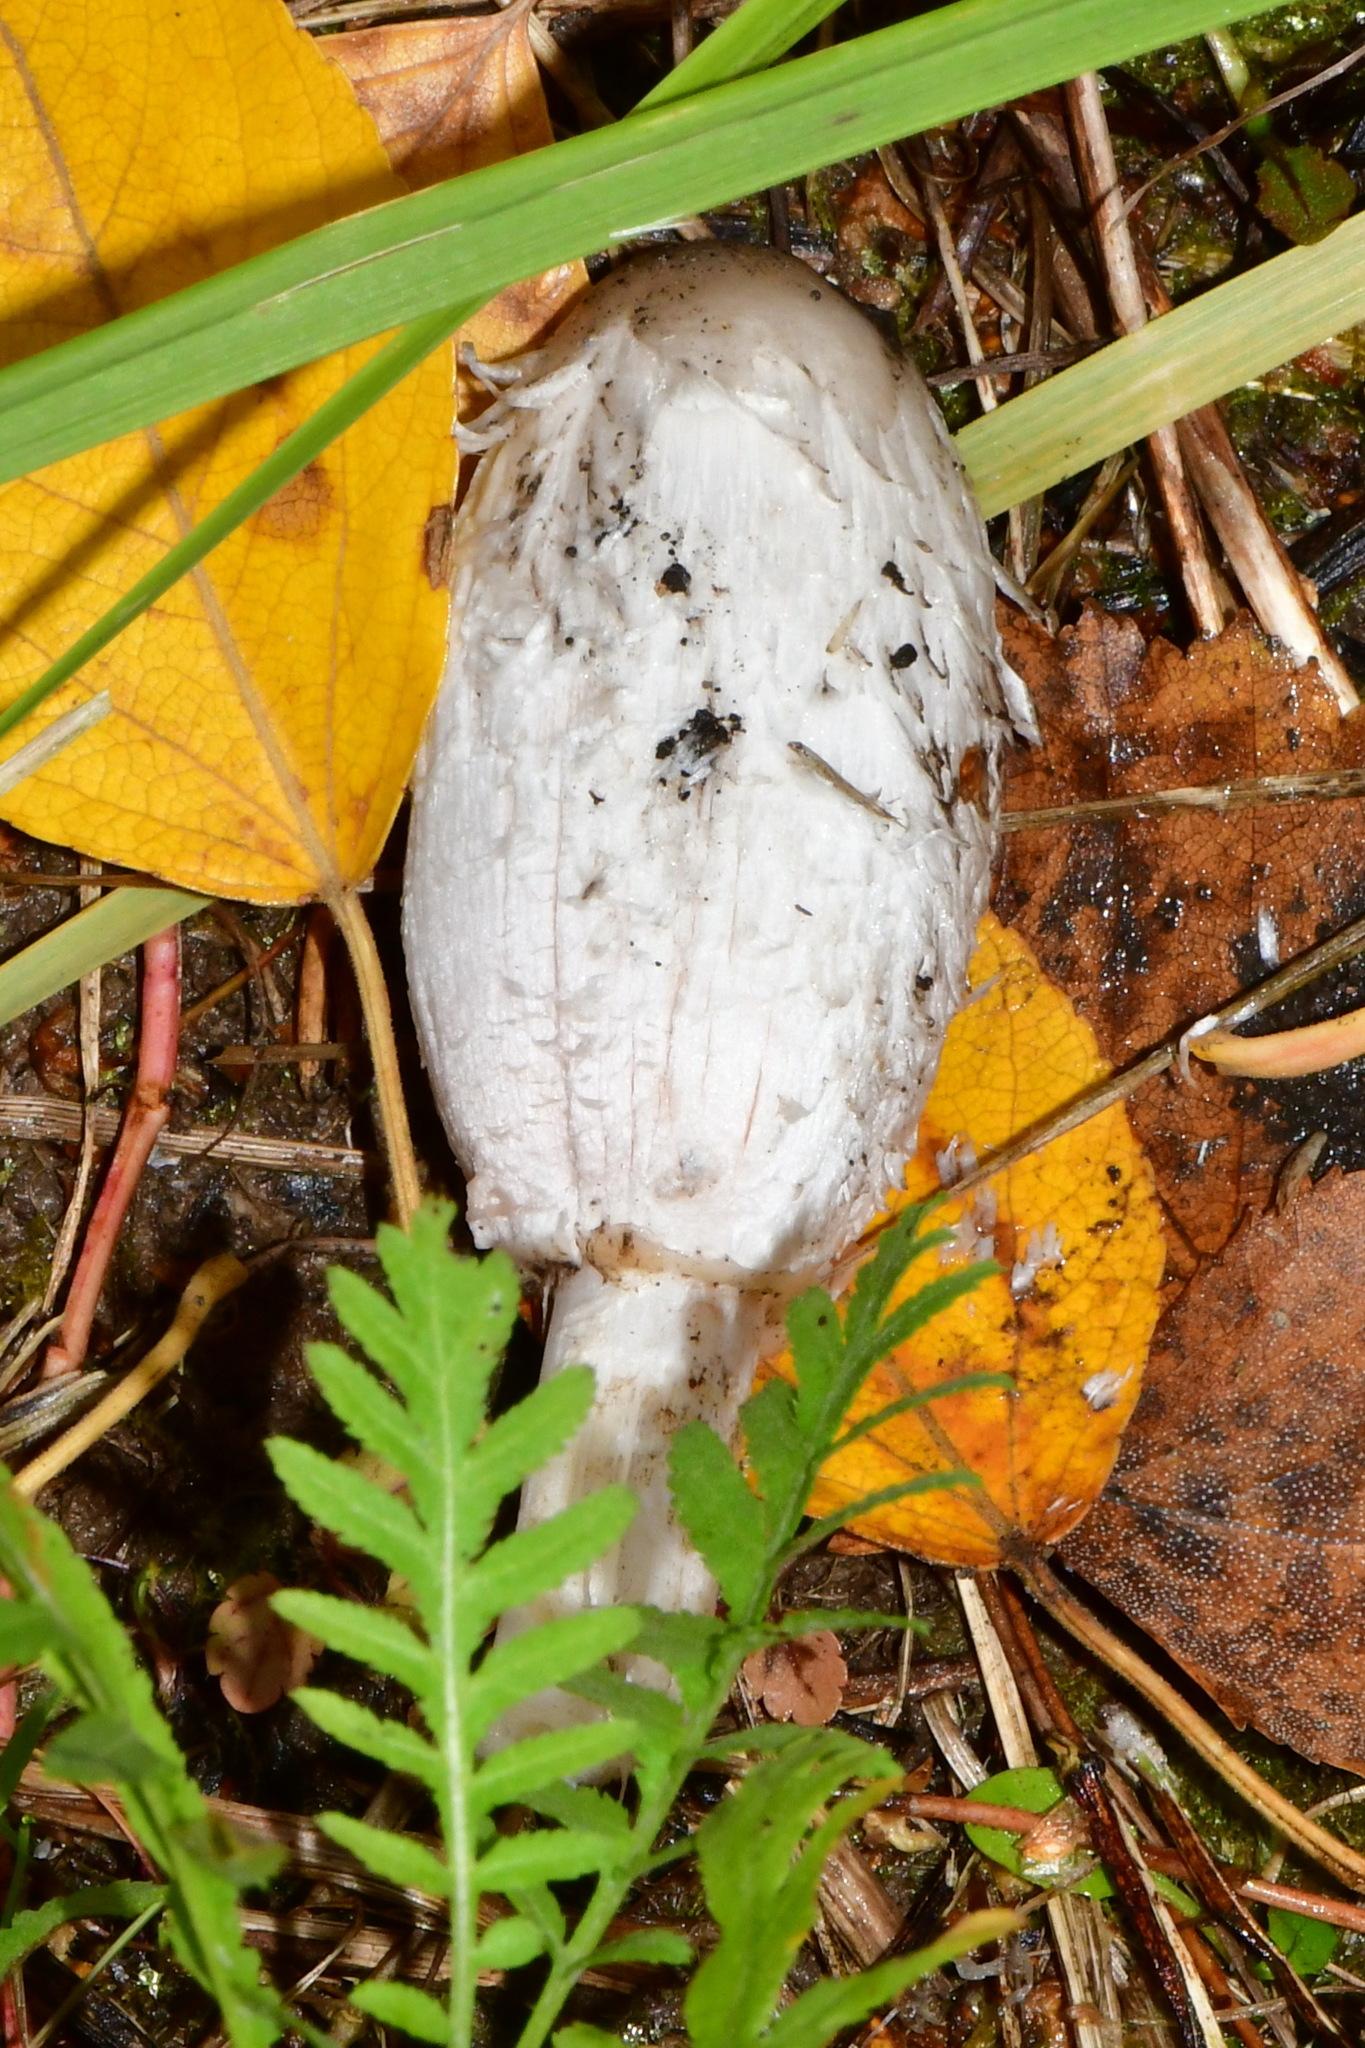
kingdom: Fungi
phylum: Basidiomycota
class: Agaricomycetes
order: Agaricales
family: Agaricaceae
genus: Coprinus
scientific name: Coprinus comatus
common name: Lawyer's wig
